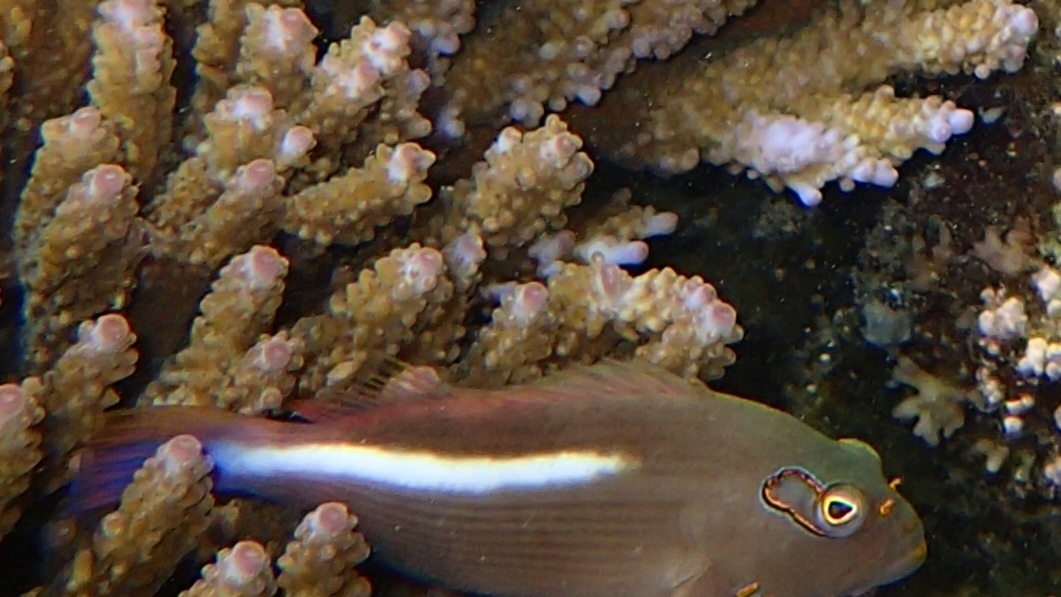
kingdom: Animalia
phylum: Chordata
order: Perciformes
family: Cirrhitidae
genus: Paracirrhites
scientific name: Paracirrhites arcatus
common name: Arc-eye hawkfish
